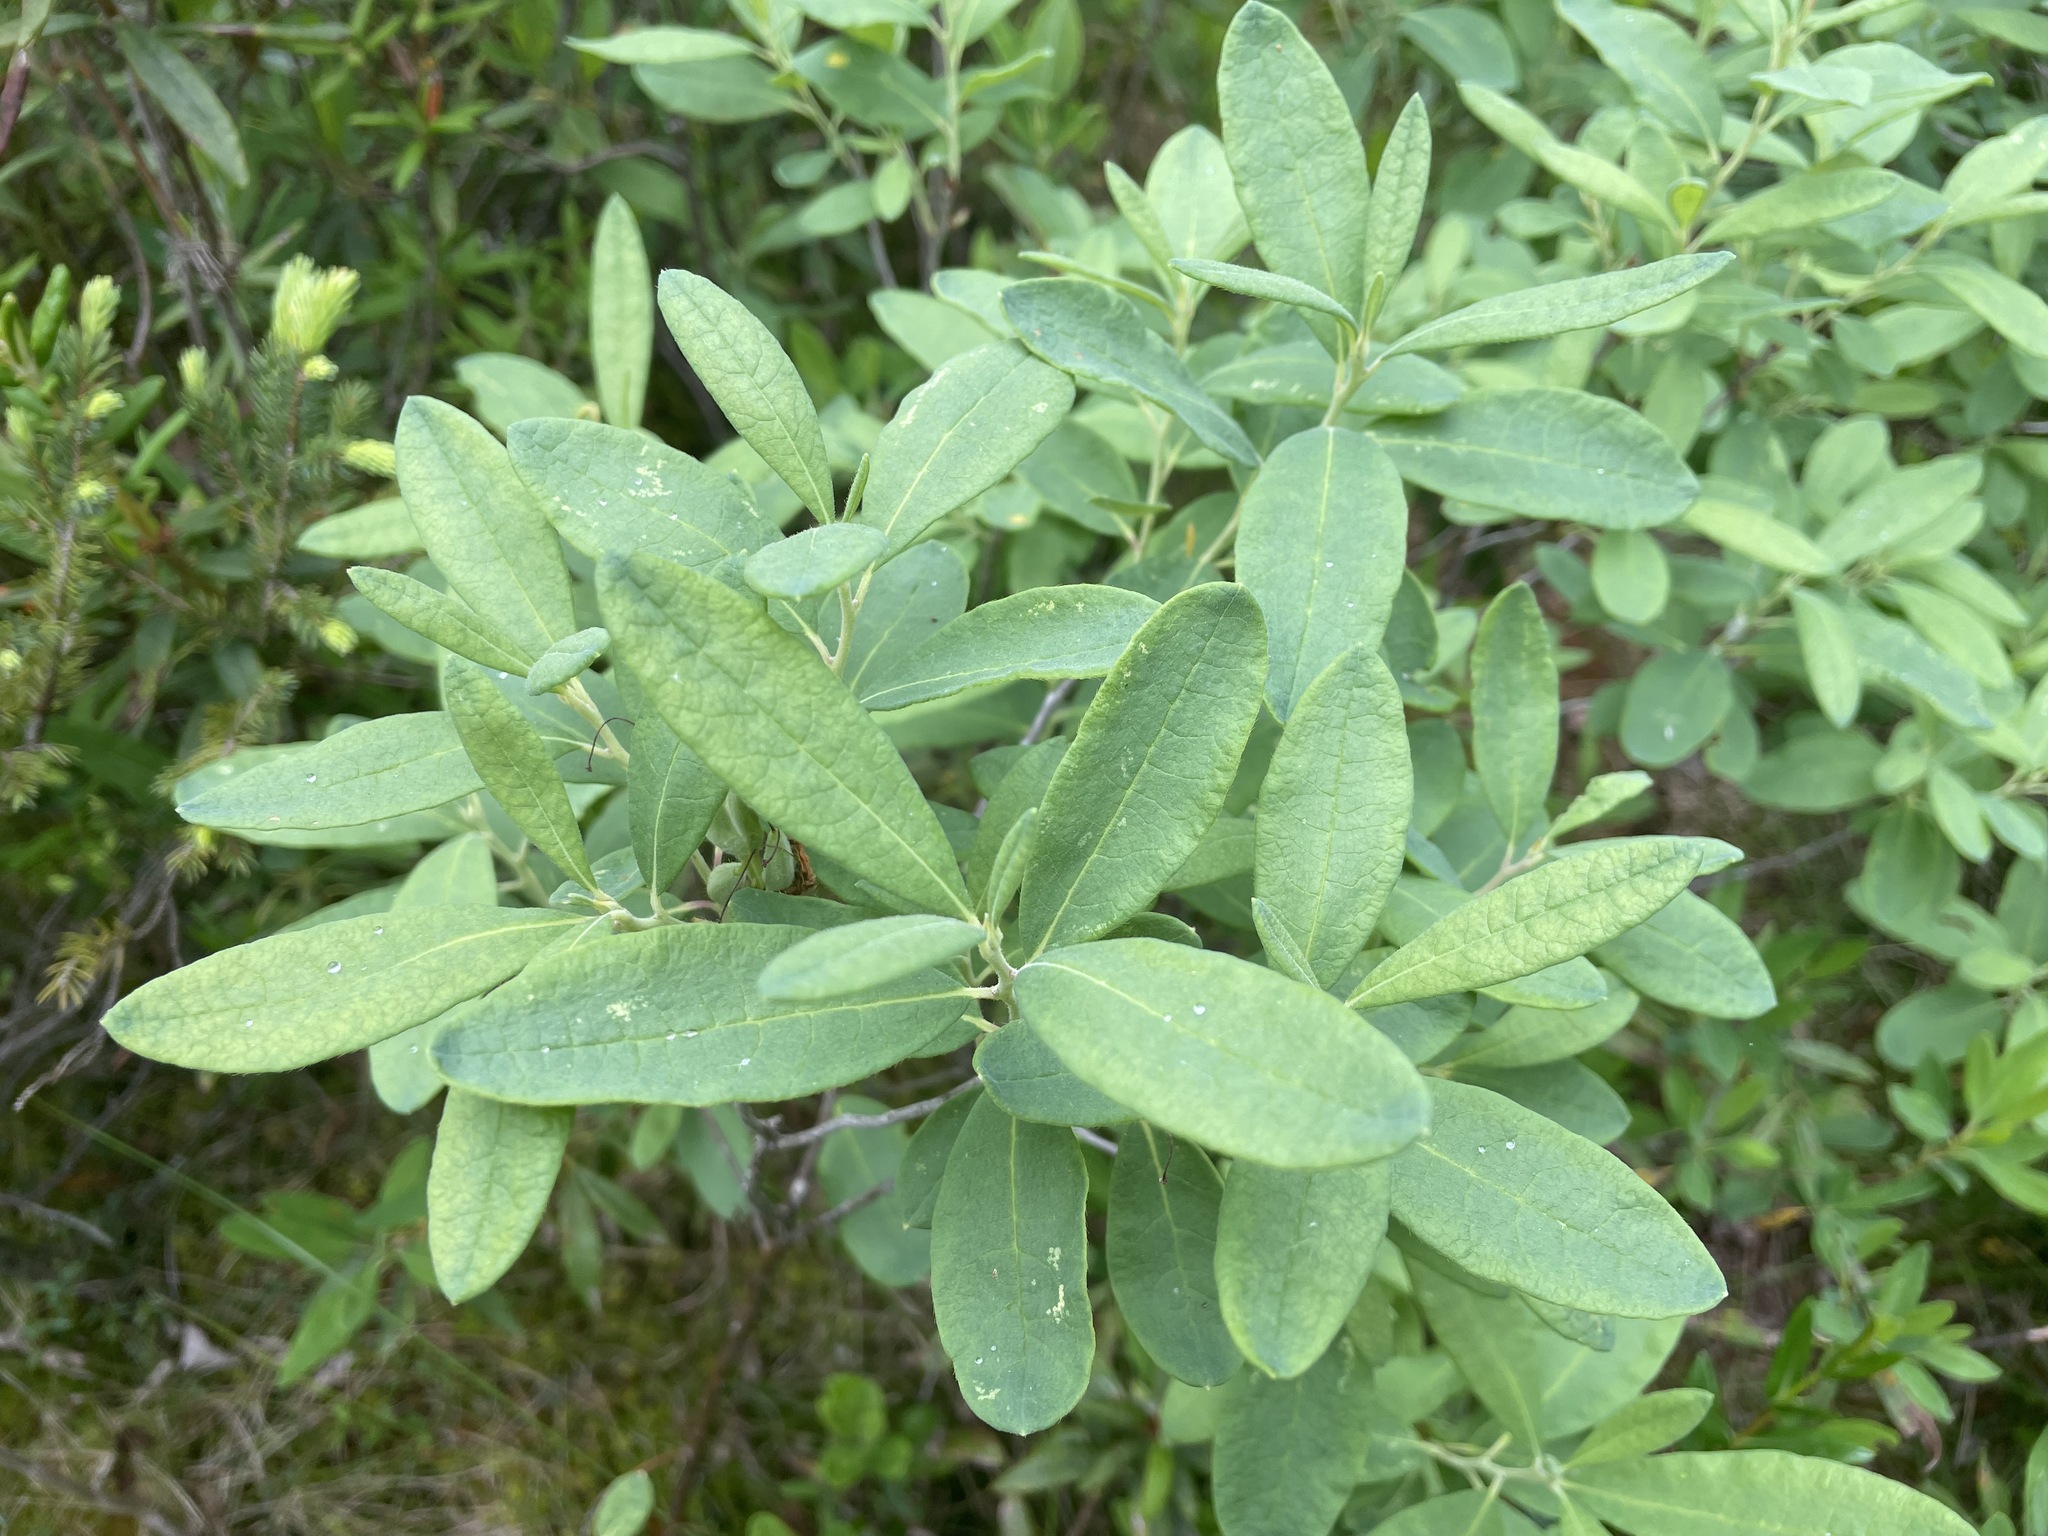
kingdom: Plantae
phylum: Tracheophyta
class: Magnoliopsida
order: Ericales
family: Ericaceae
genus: Rhododendron
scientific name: Rhododendron canadense
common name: Rhodora
